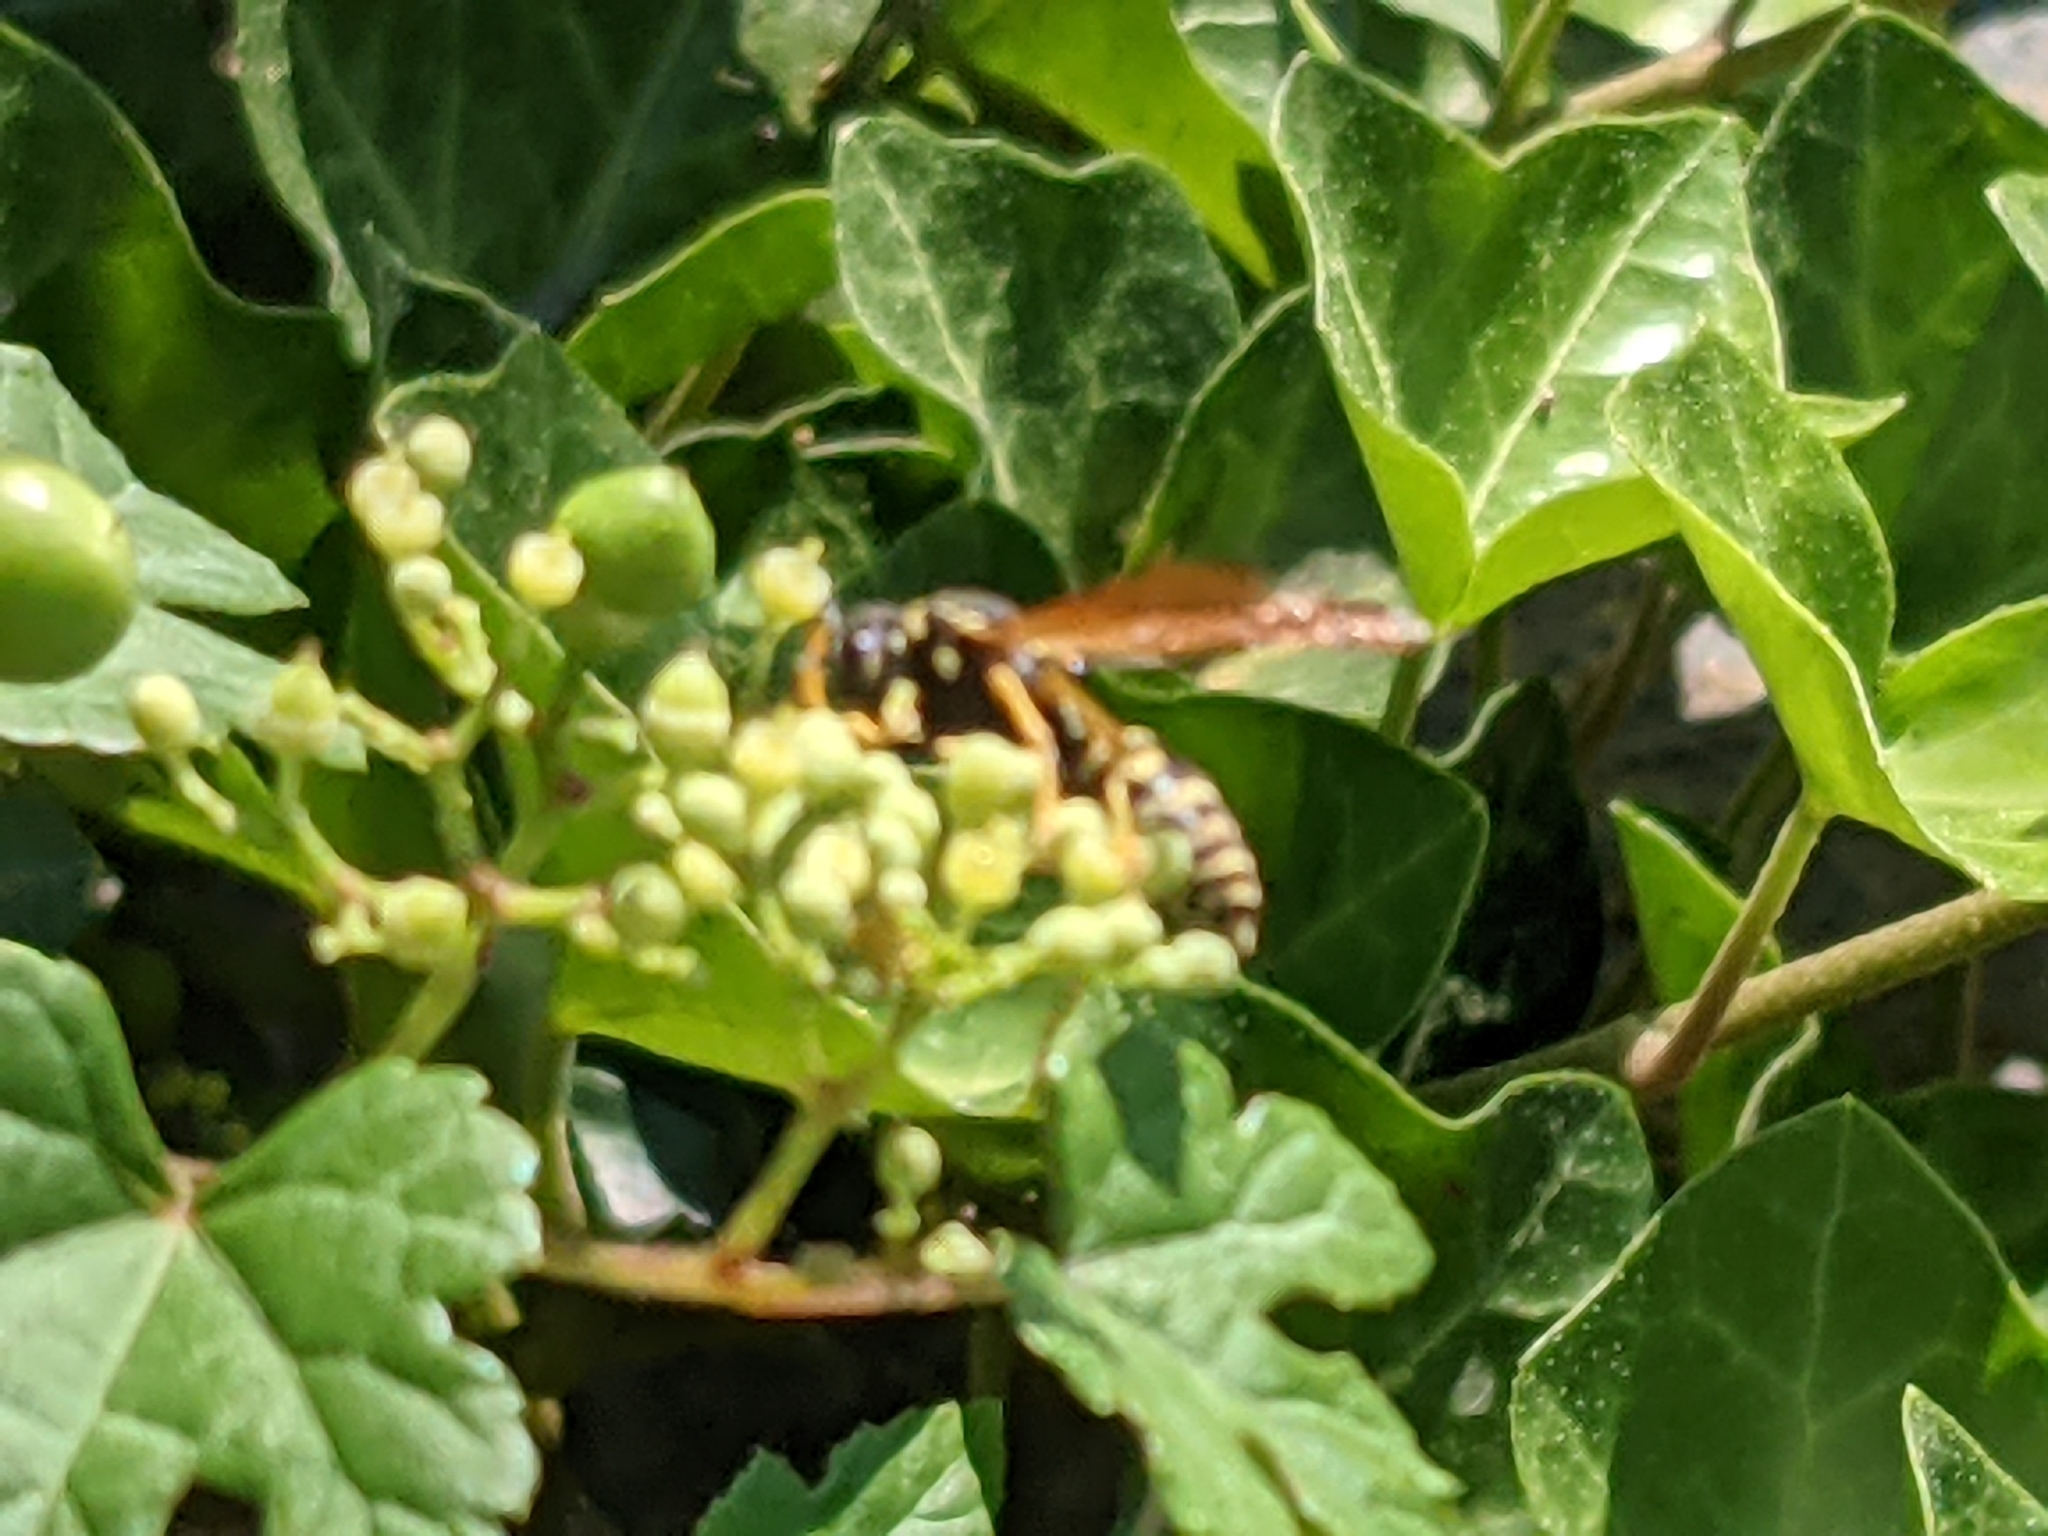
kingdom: Animalia
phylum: Arthropoda
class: Insecta
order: Hymenoptera
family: Eumenidae
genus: Polistes
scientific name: Polistes dominula
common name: Paper wasp
